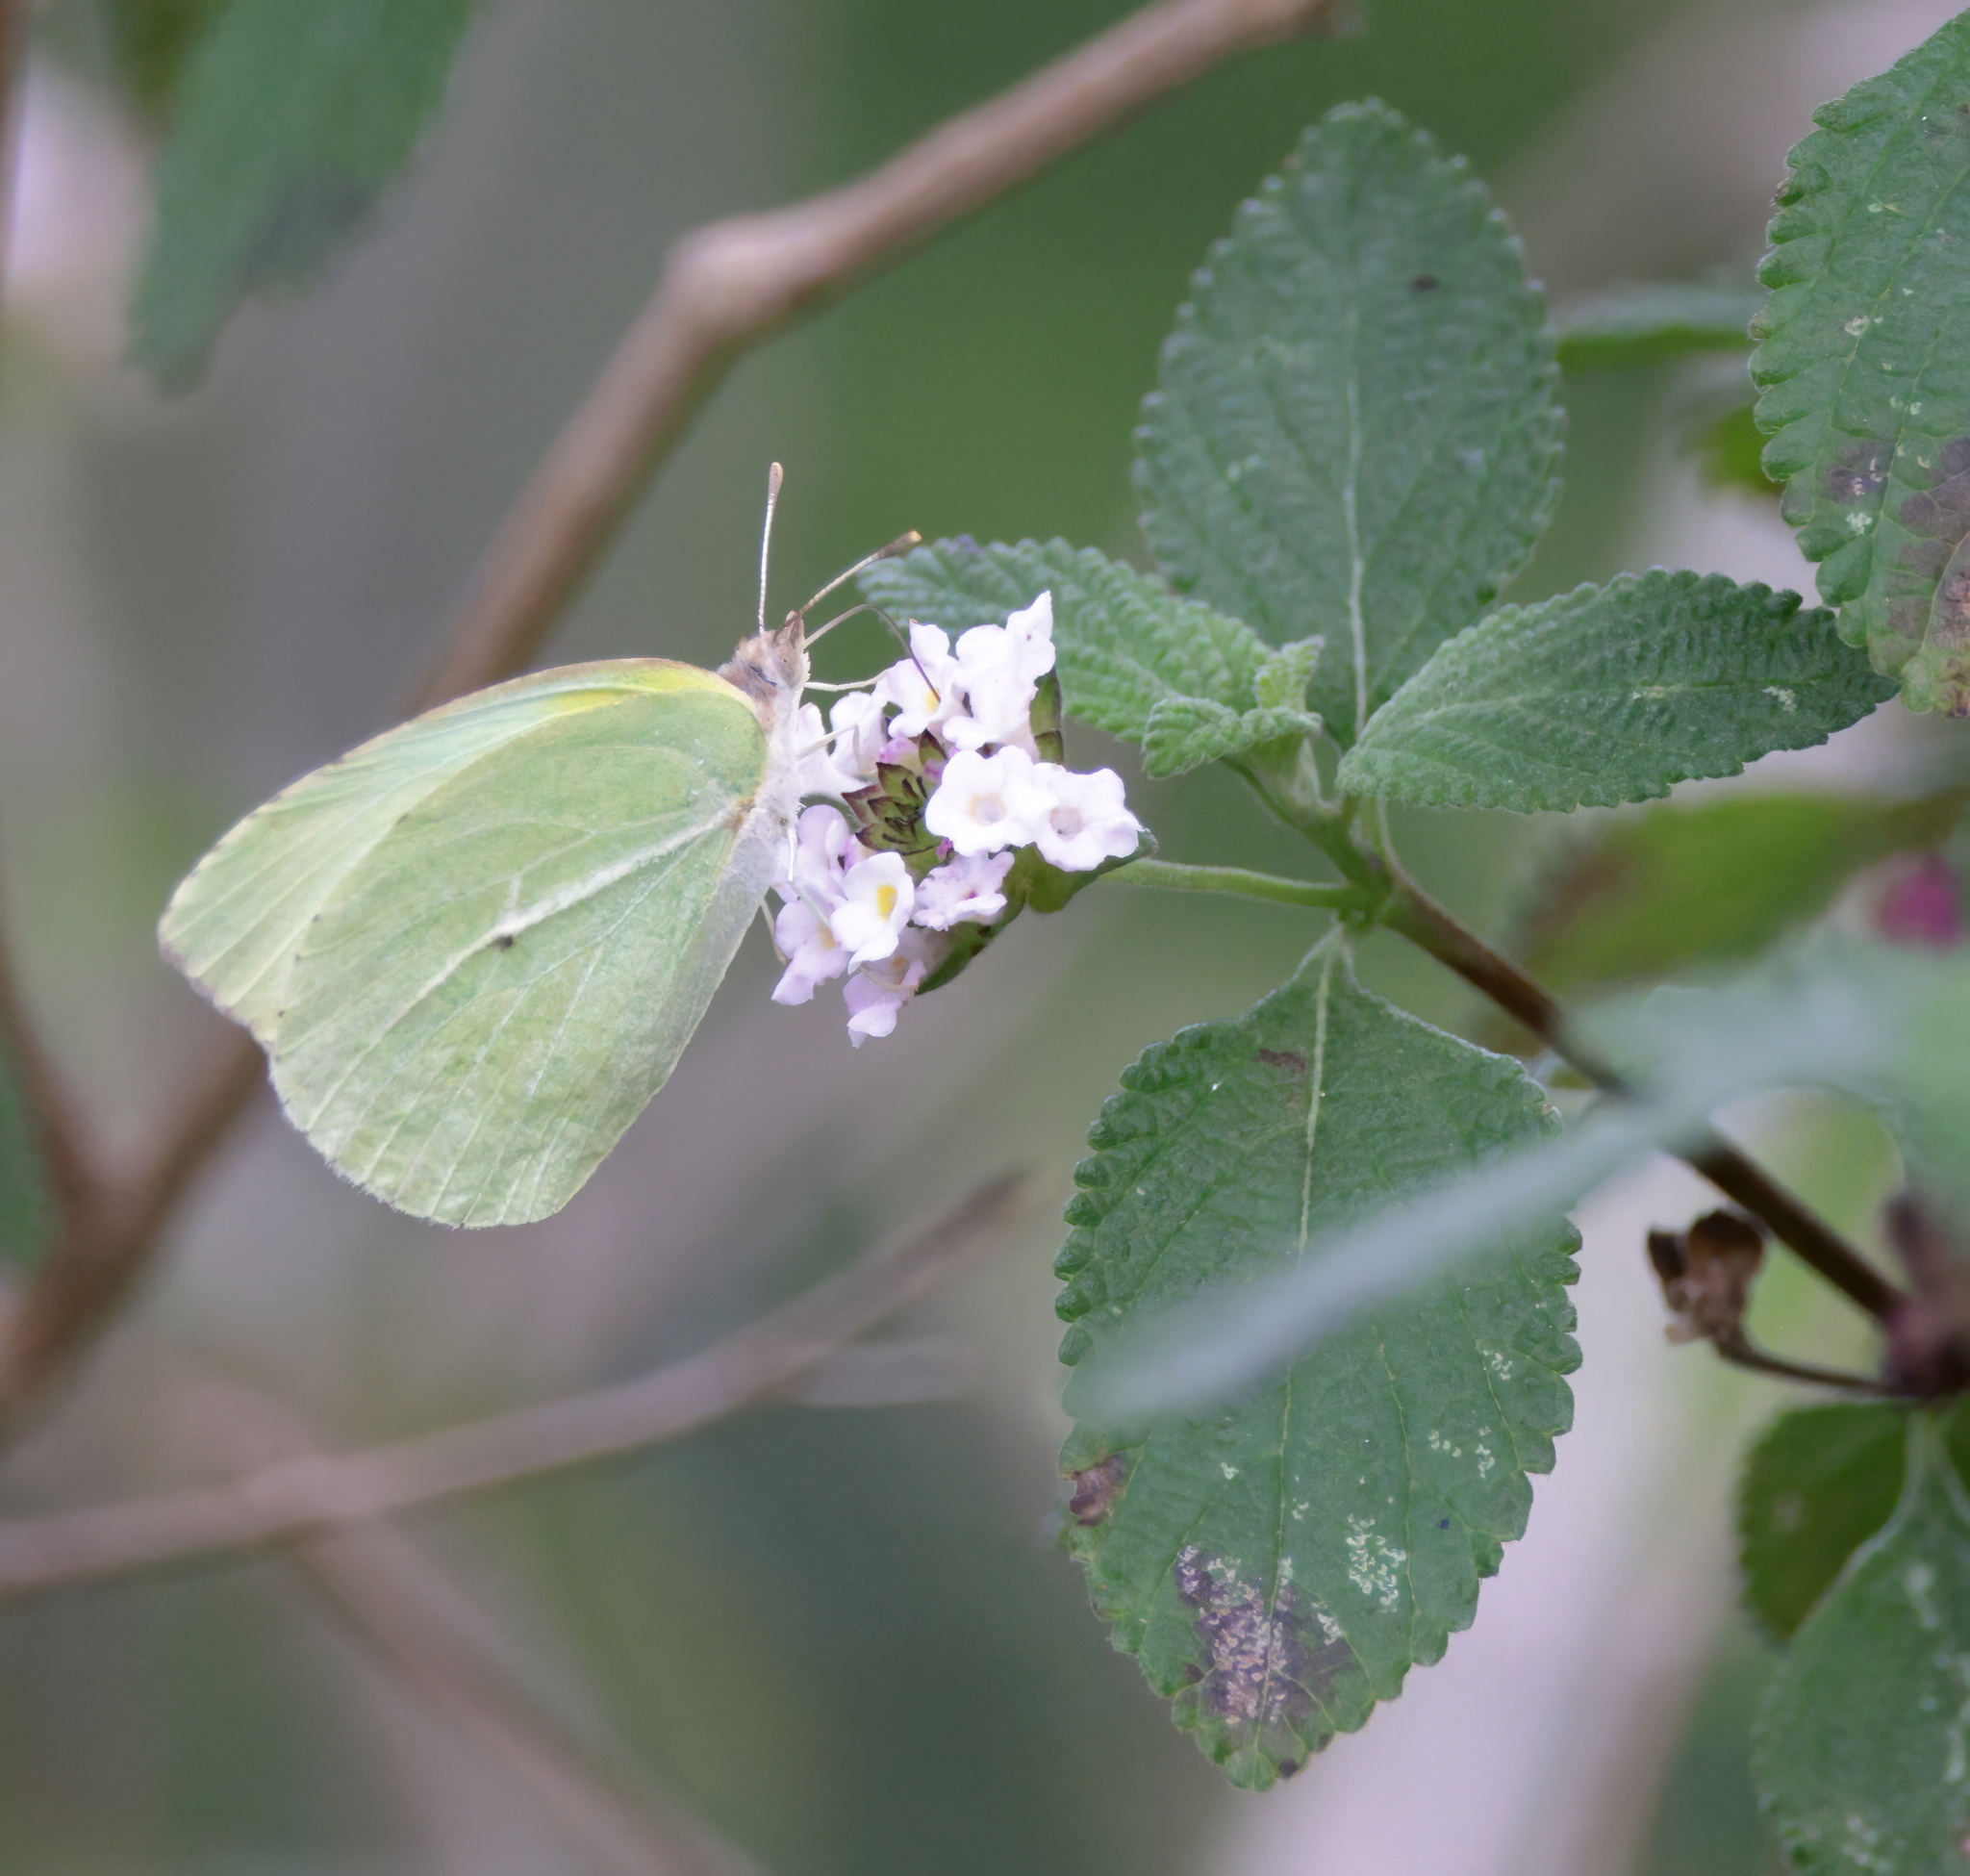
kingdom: Animalia
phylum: Arthropoda
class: Insecta
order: Lepidoptera
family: Pieridae
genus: Kricogonia
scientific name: Kricogonia lyside
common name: Guayacan sulphur,
